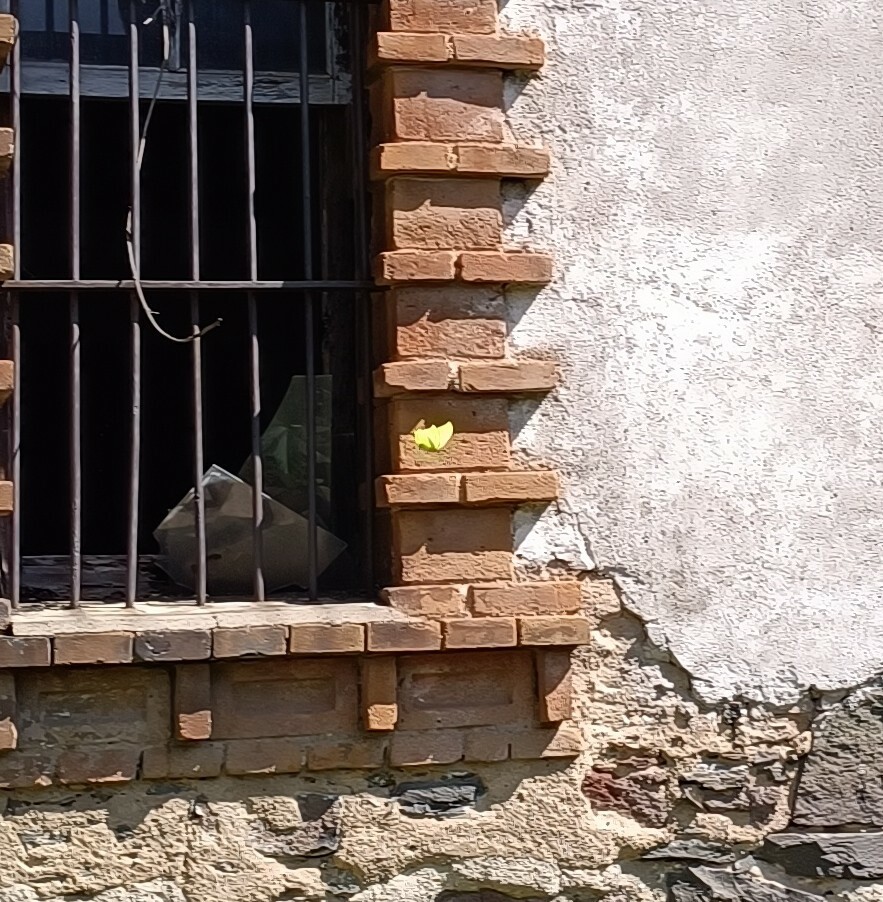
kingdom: Animalia
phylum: Arthropoda
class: Insecta
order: Lepidoptera
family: Pieridae
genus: Anteos
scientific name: Anteos maerula
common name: Angled sulphur
